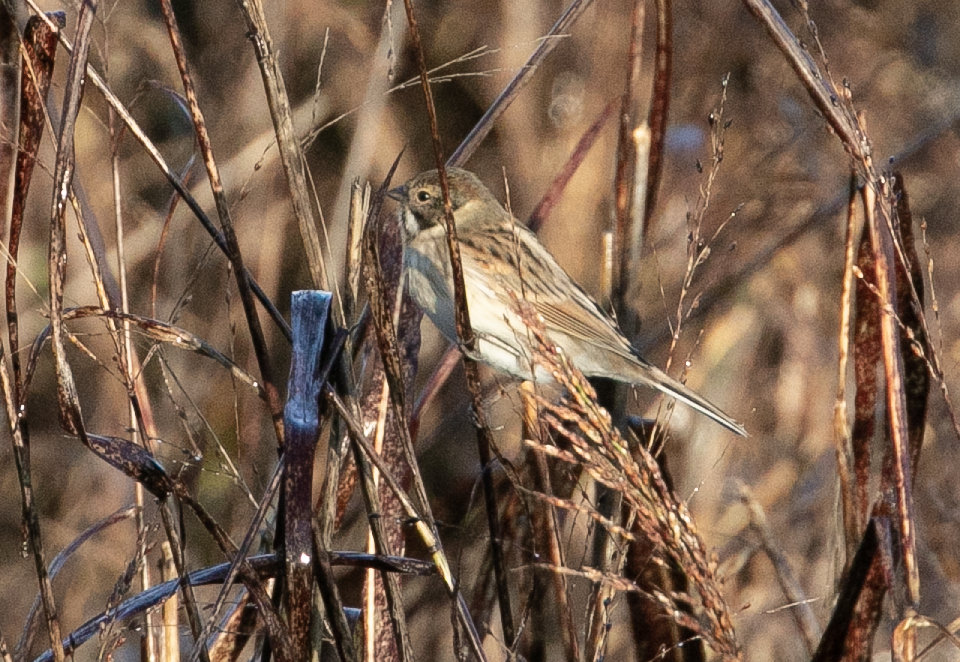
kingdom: Animalia
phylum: Chordata
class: Aves
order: Passeriformes
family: Emberizidae
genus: Emberiza
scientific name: Emberiza schoeniclus
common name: Reed bunting
